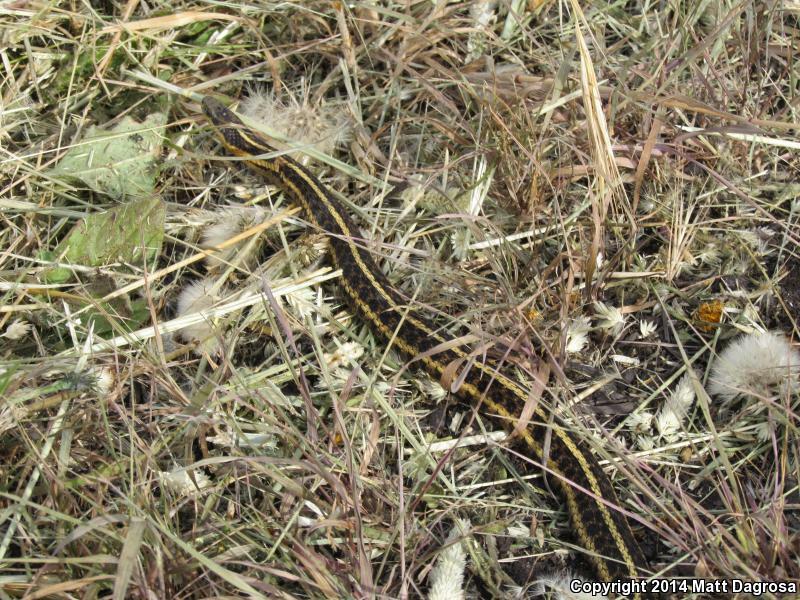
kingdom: Animalia
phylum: Chordata
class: Squamata
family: Colubridae
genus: Thamnophis
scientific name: Thamnophis ordinoides
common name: Northwestern garter snake
